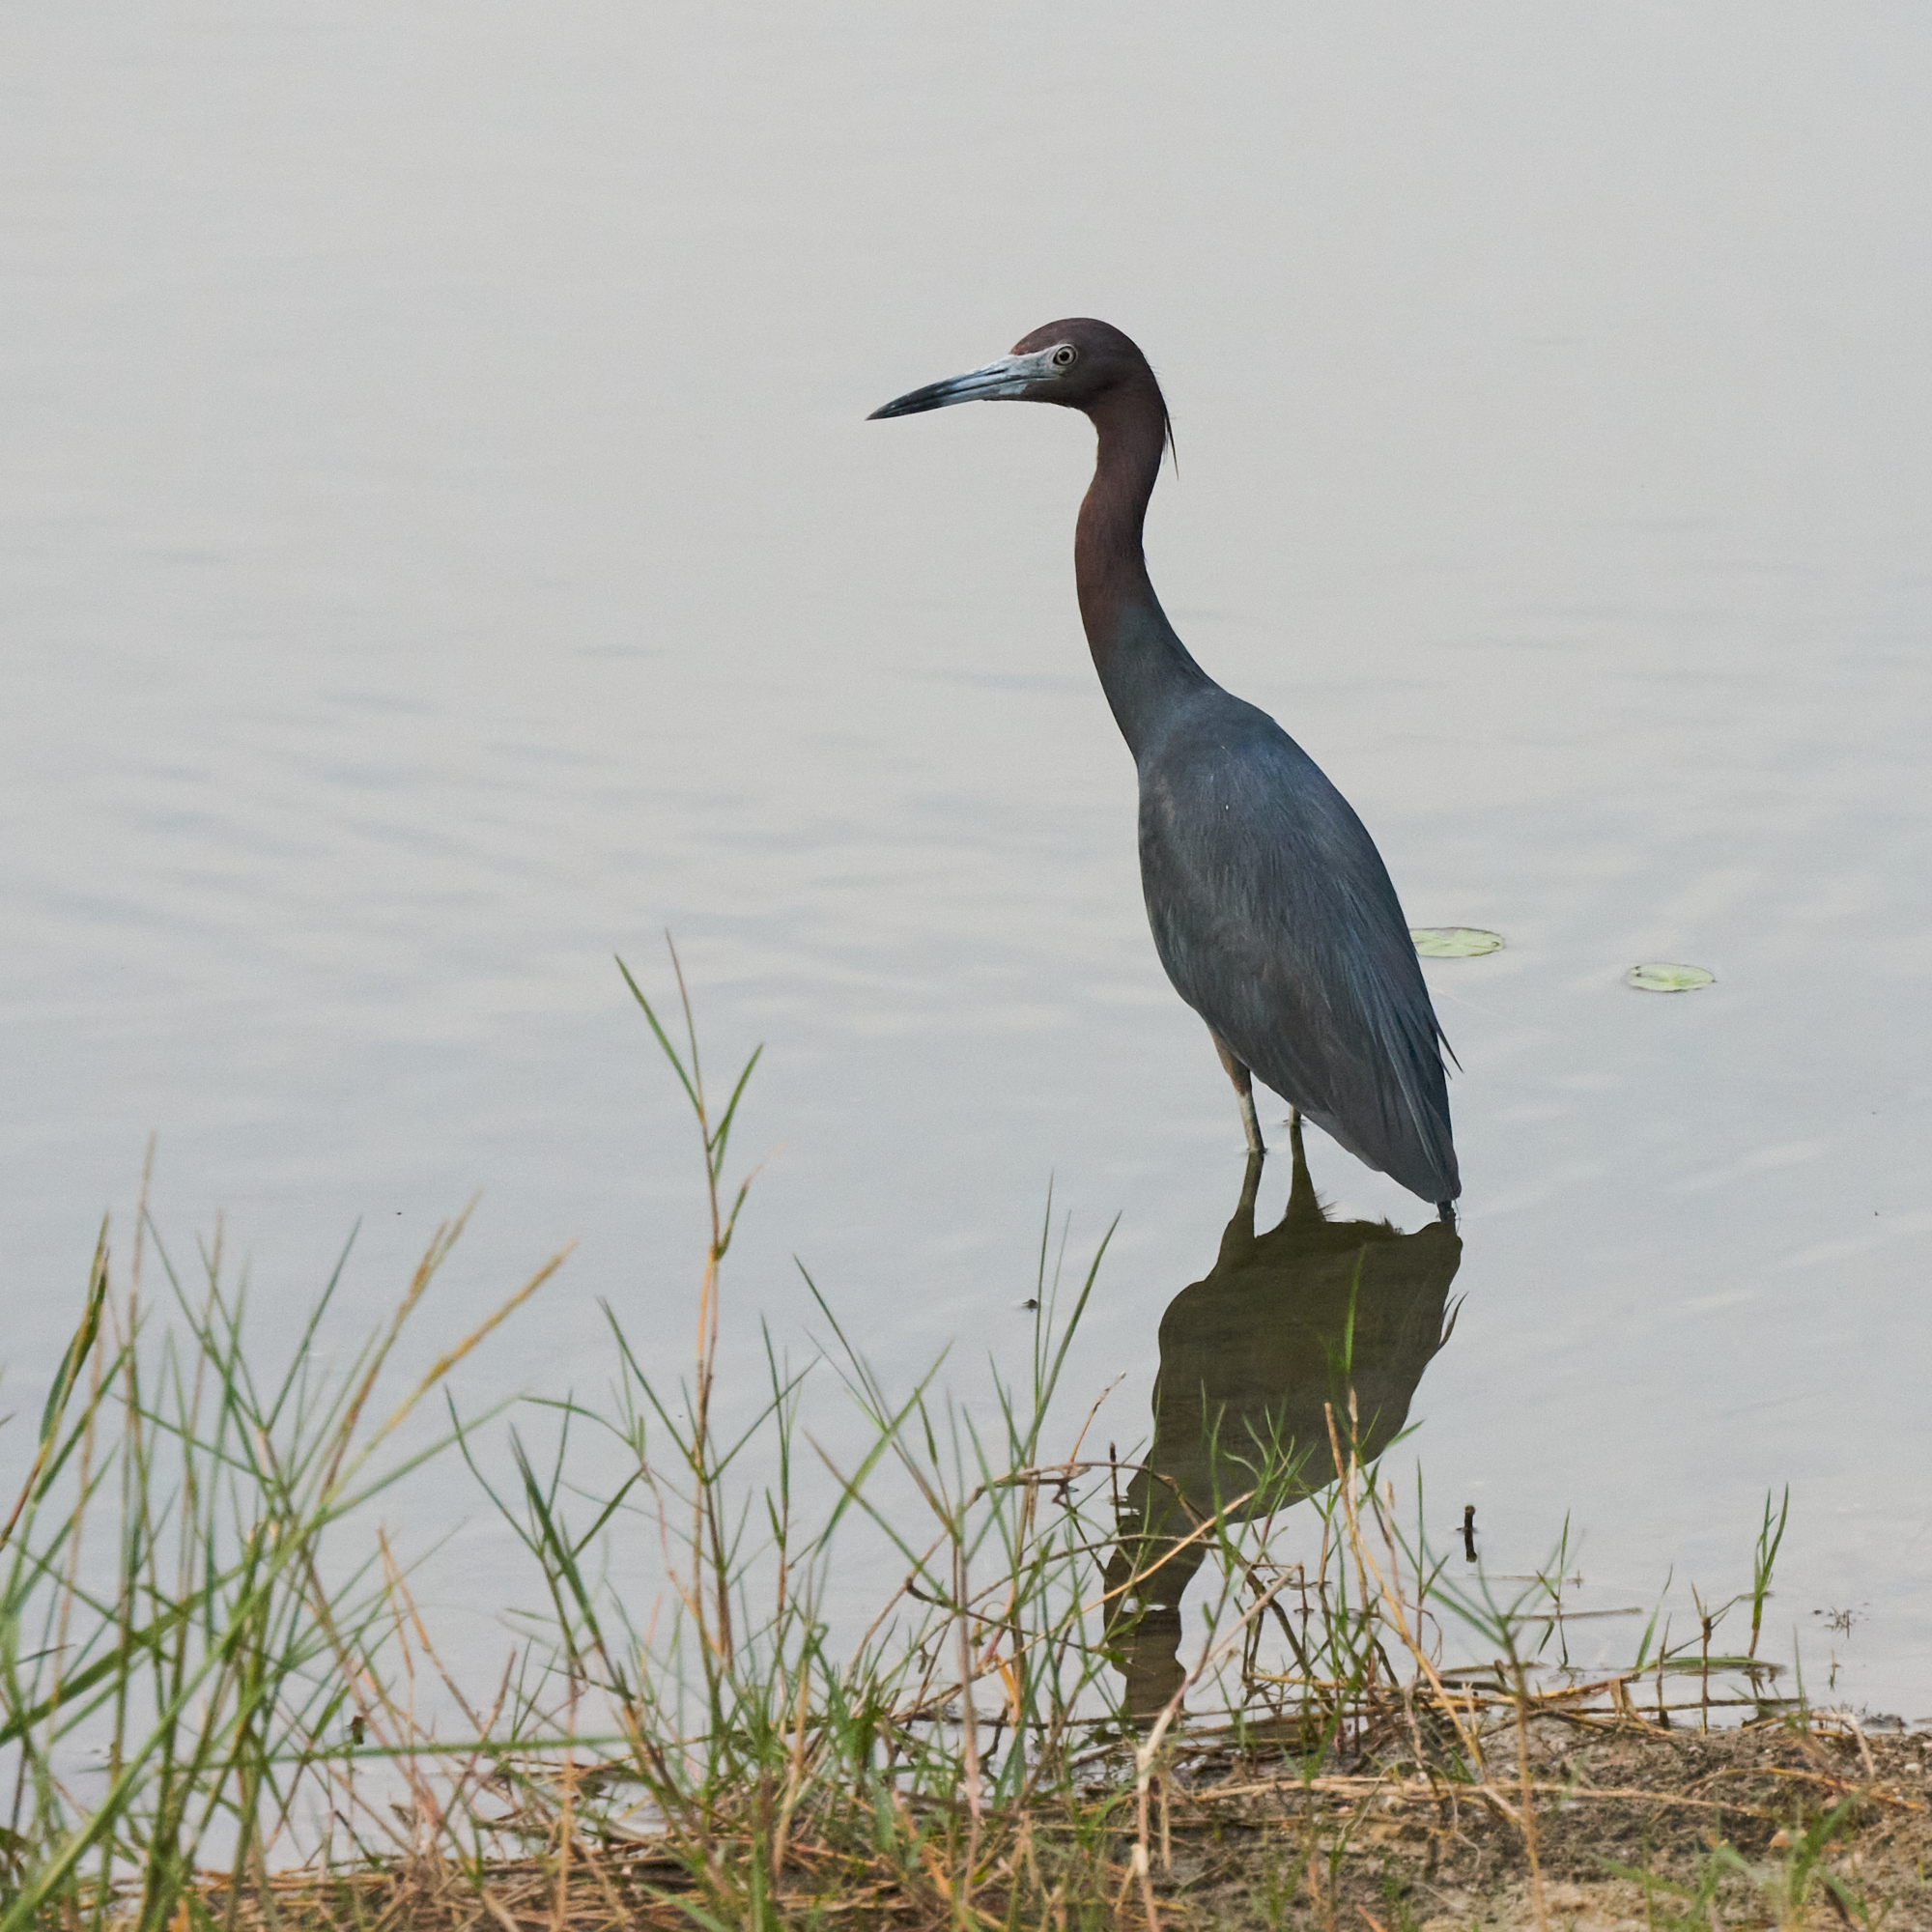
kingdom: Animalia
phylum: Chordata
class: Aves
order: Pelecaniformes
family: Ardeidae
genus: Egretta
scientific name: Egretta caerulea
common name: Little blue heron
